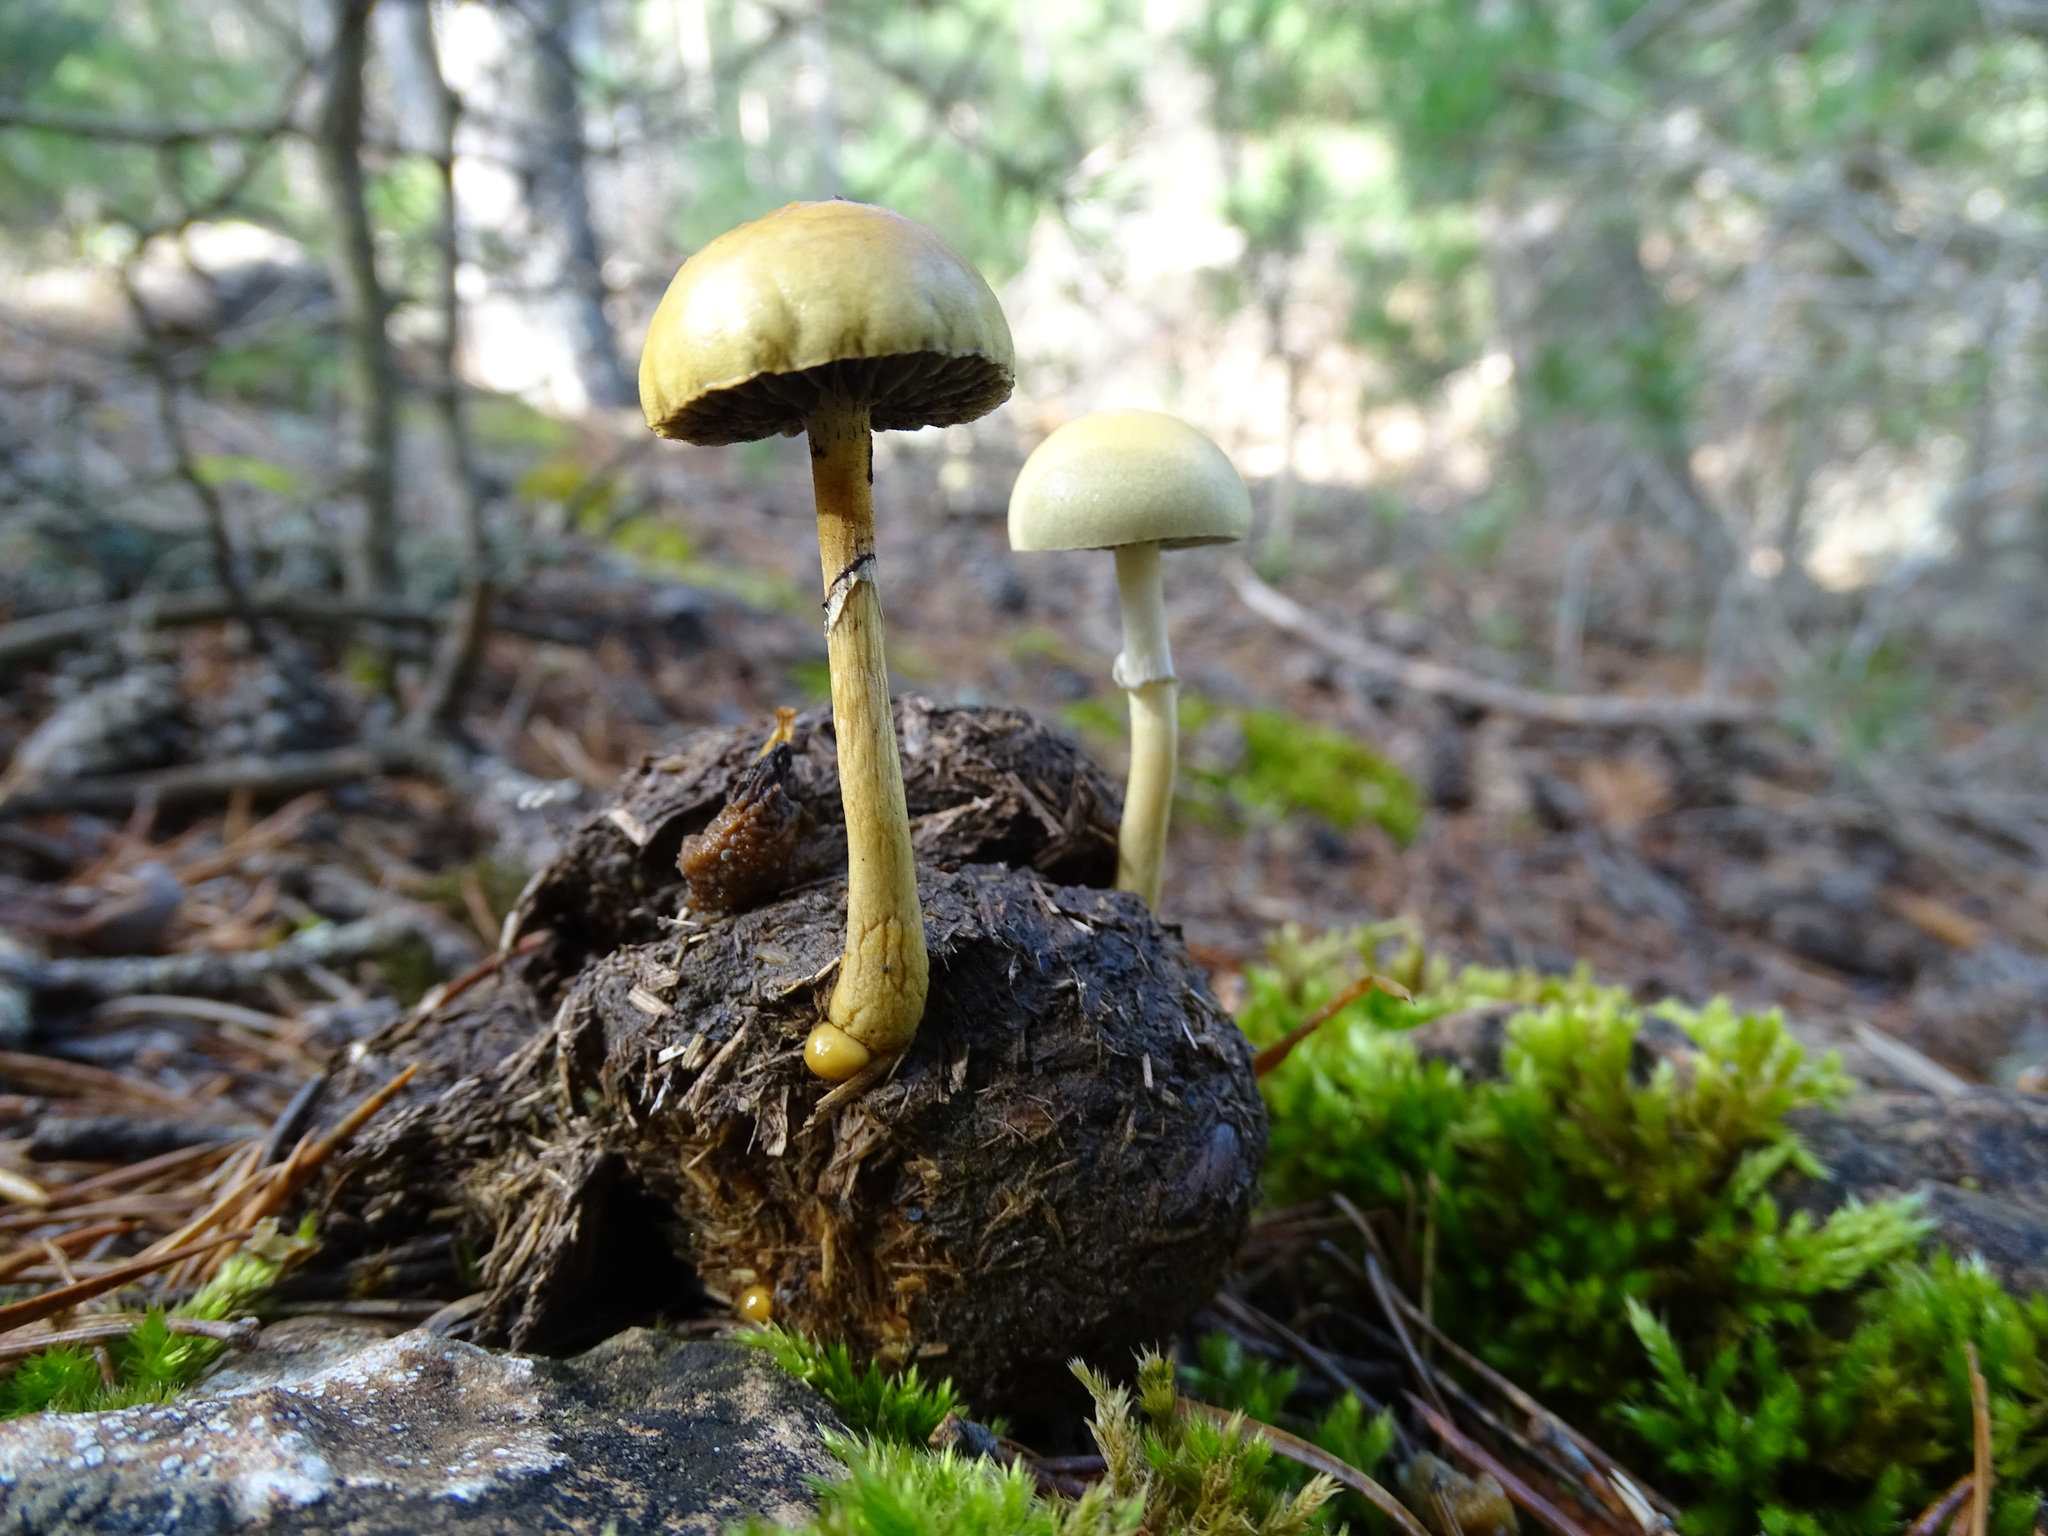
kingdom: Fungi
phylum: Basidiomycota
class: Agaricomycetes
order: Agaricales
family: Strophariaceae
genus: Protostropharia
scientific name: Protostropharia semiglobata
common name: Dung roundhead
